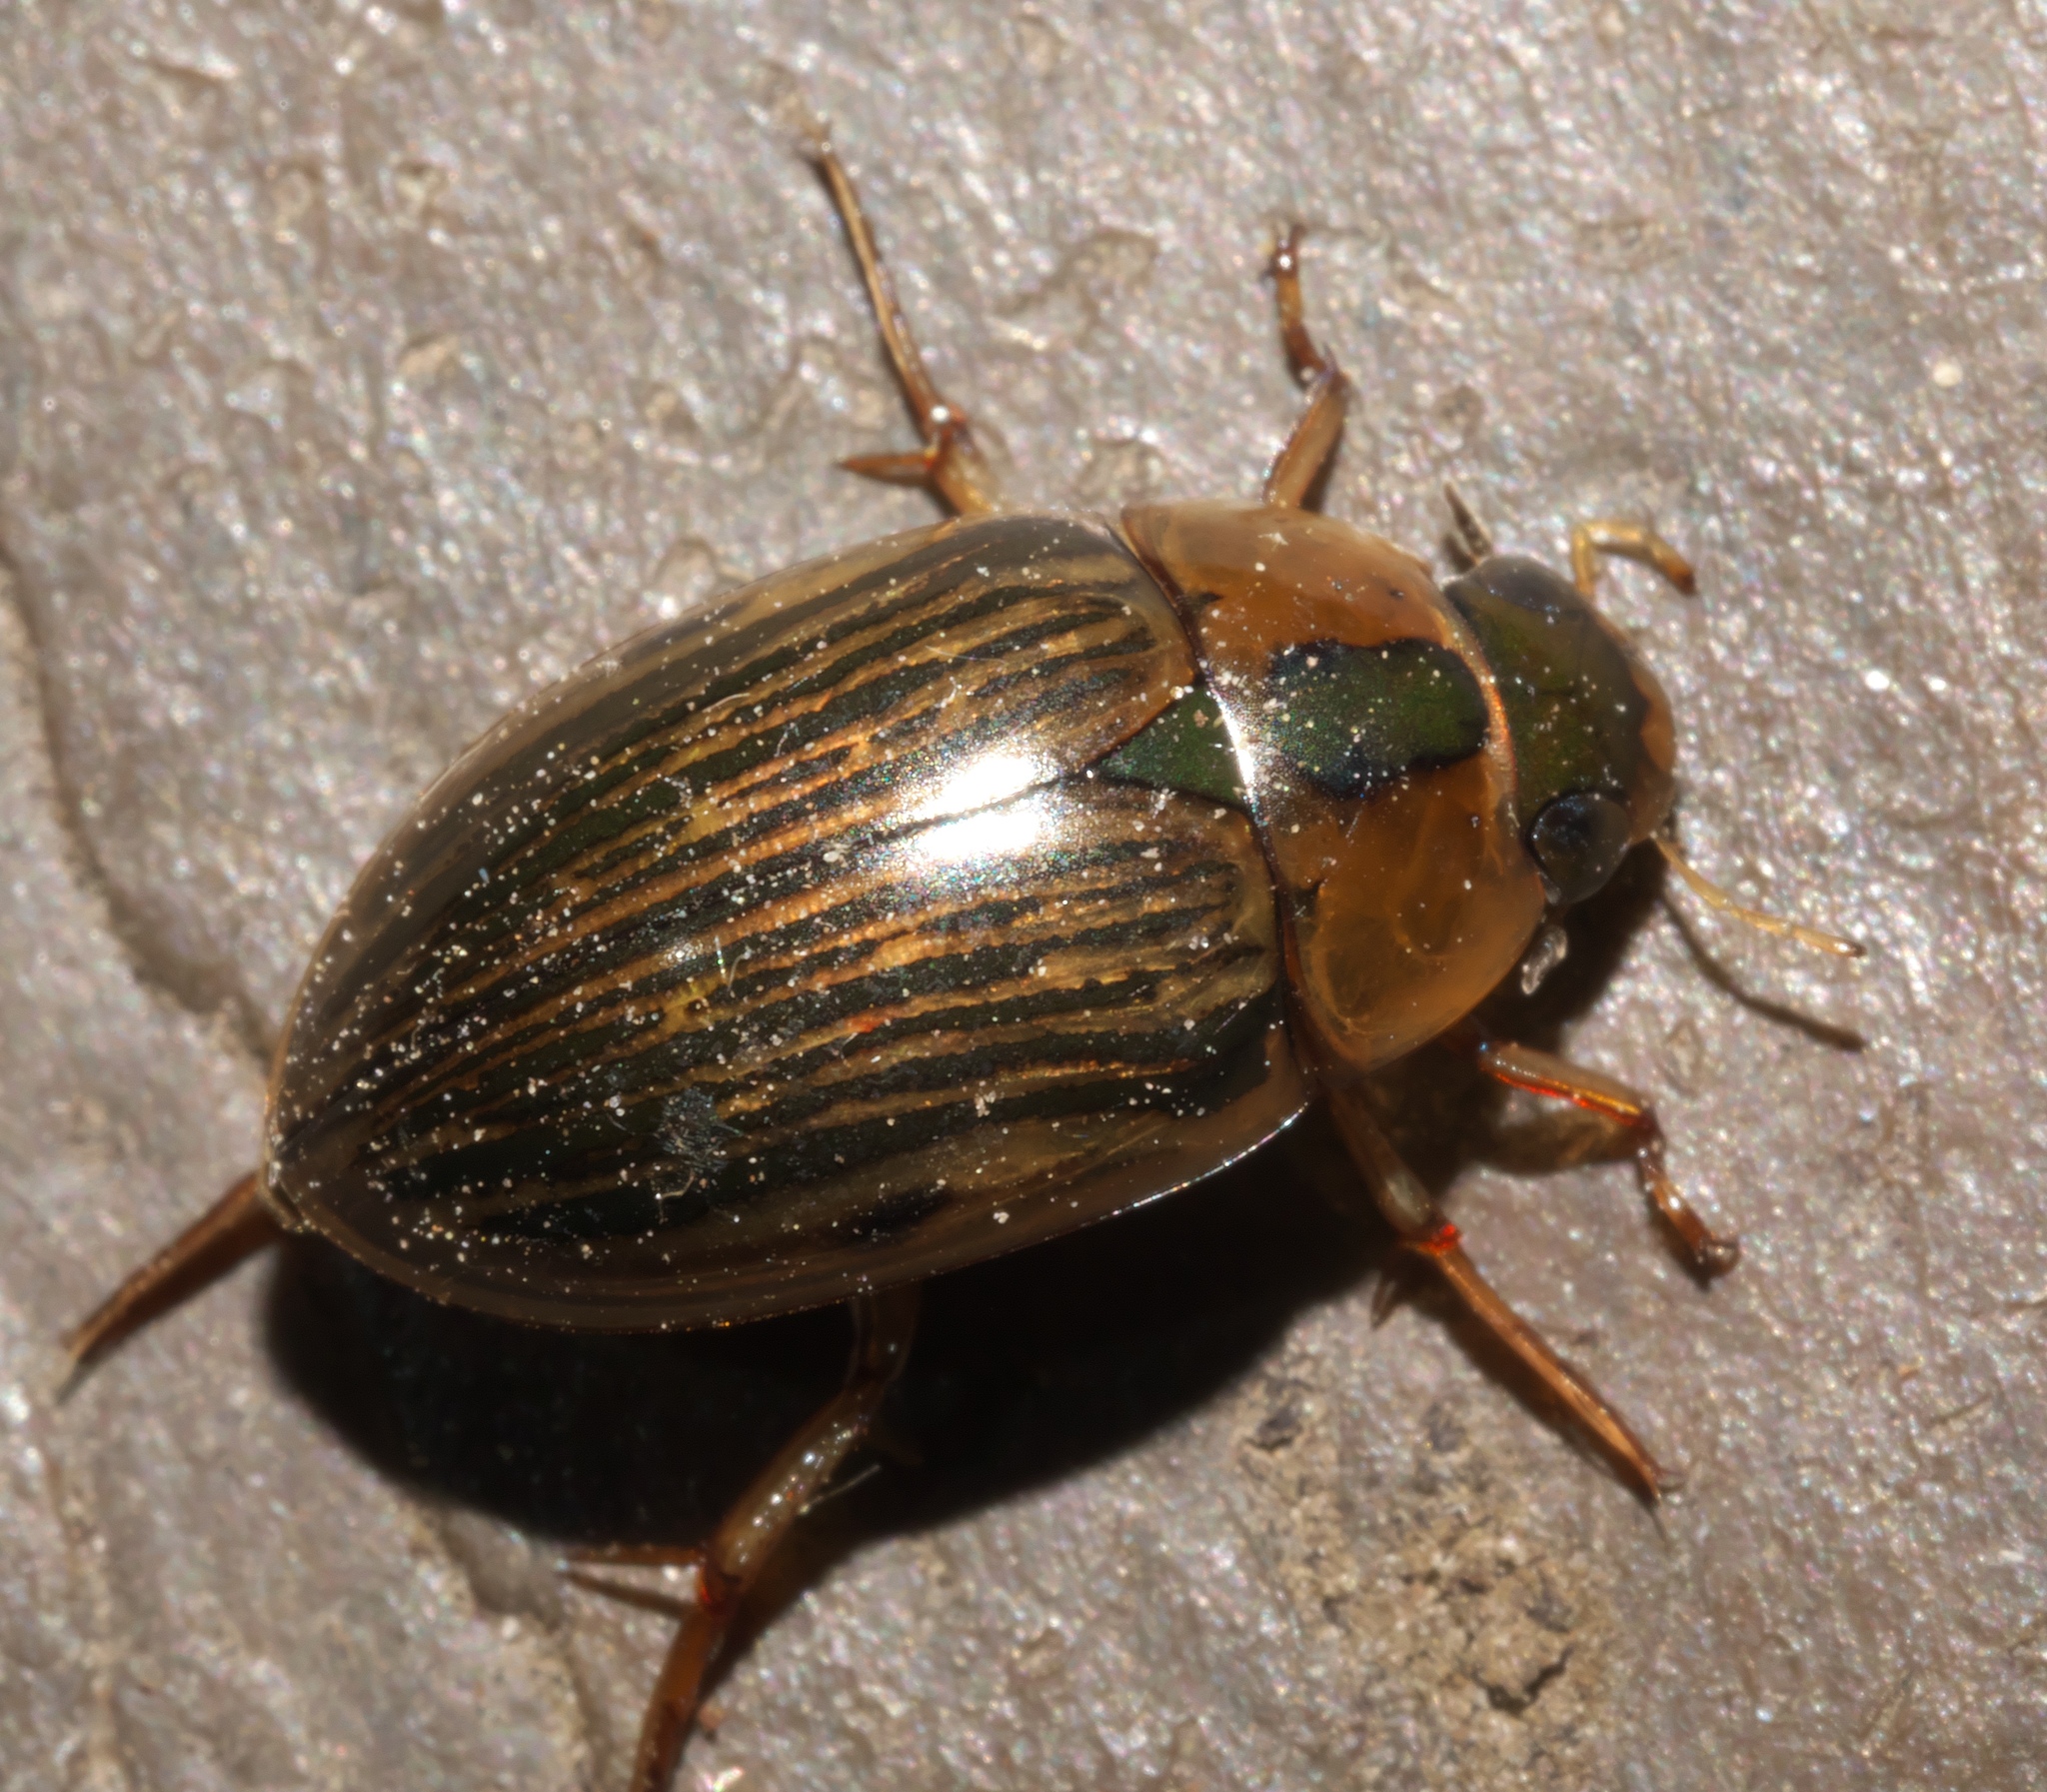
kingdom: Animalia
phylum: Arthropoda
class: Insecta
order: Coleoptera
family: Hydrophilidae
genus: Tropisternus
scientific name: Tropisternus collaris
